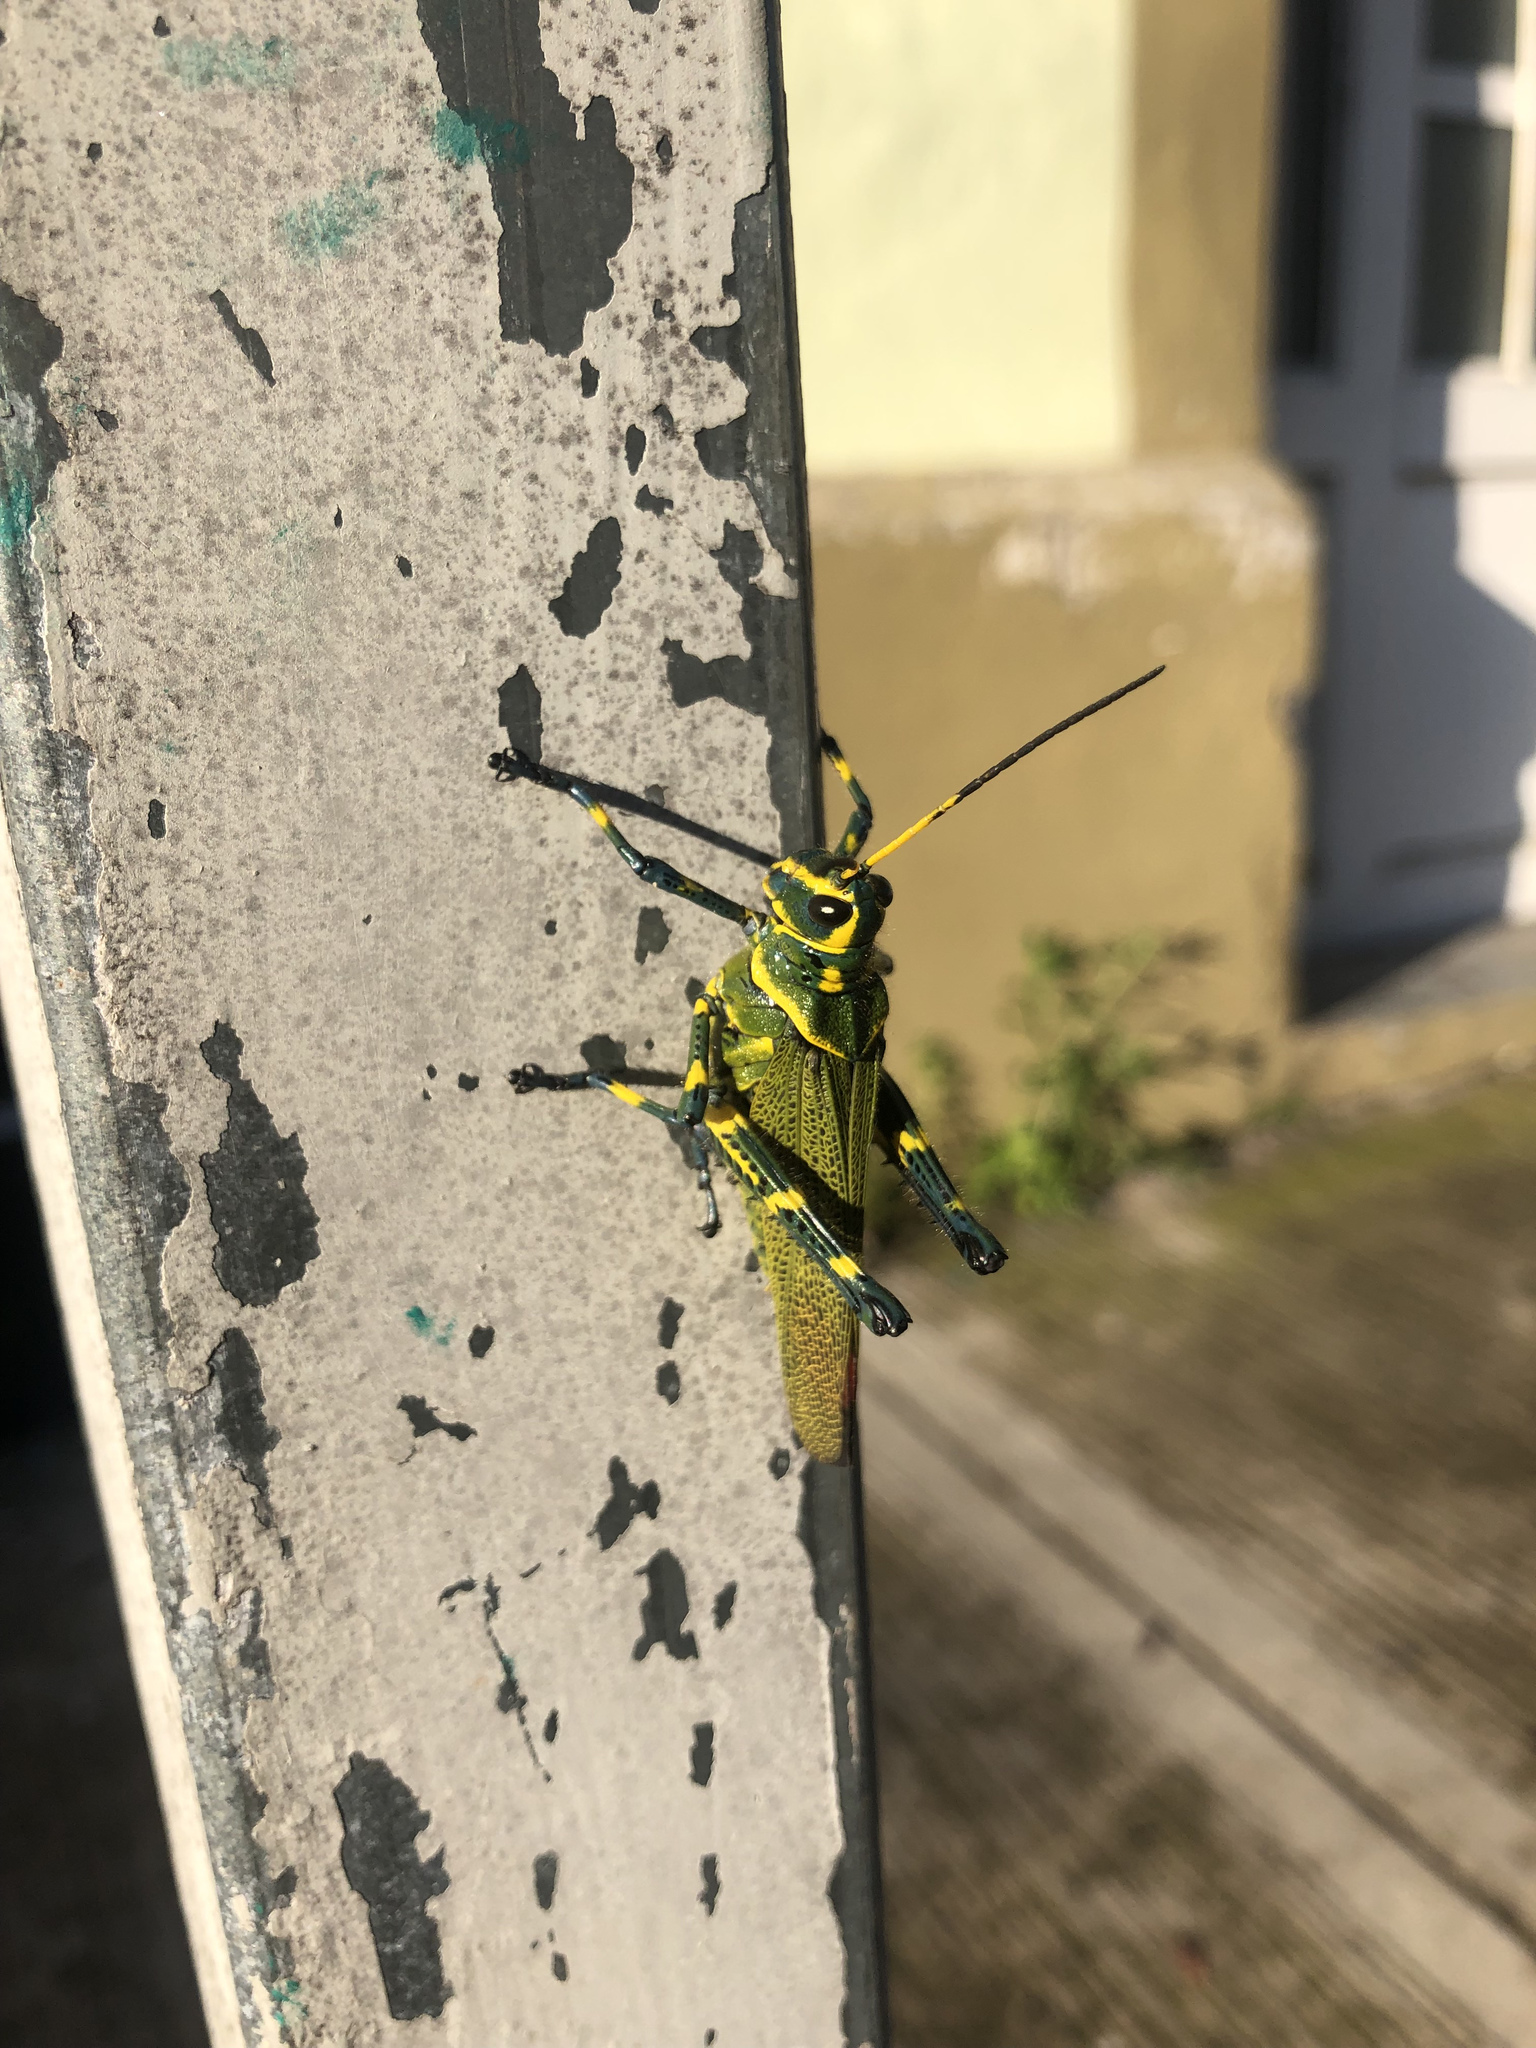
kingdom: Animalia
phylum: Arthropoda
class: Insecta
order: Orthoptera
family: Romaleidae
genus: Chromacris
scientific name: Chromacris colorata
